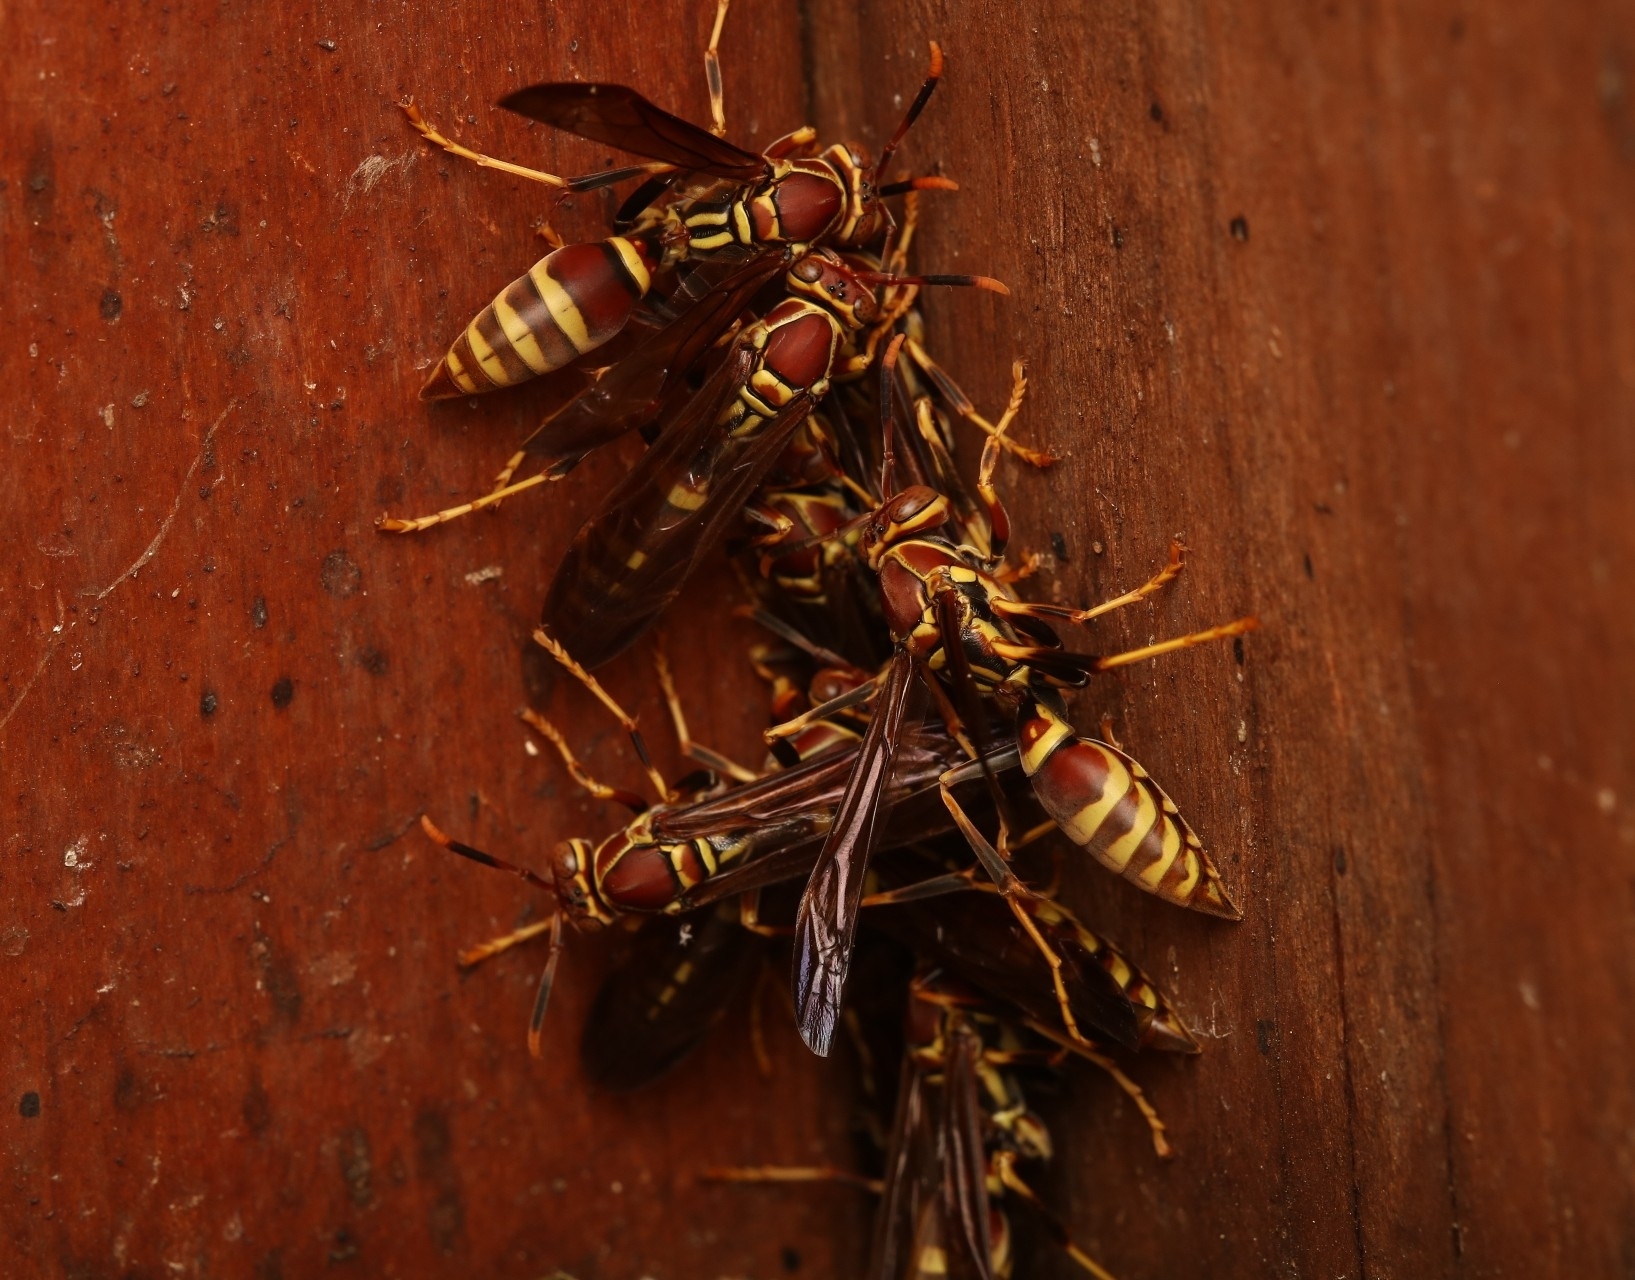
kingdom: Animalia
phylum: Arthropoda
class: Insecta
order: Hymenoptera
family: Eumenidae
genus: Polistes
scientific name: Polistes exclamans
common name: Paper wasp
